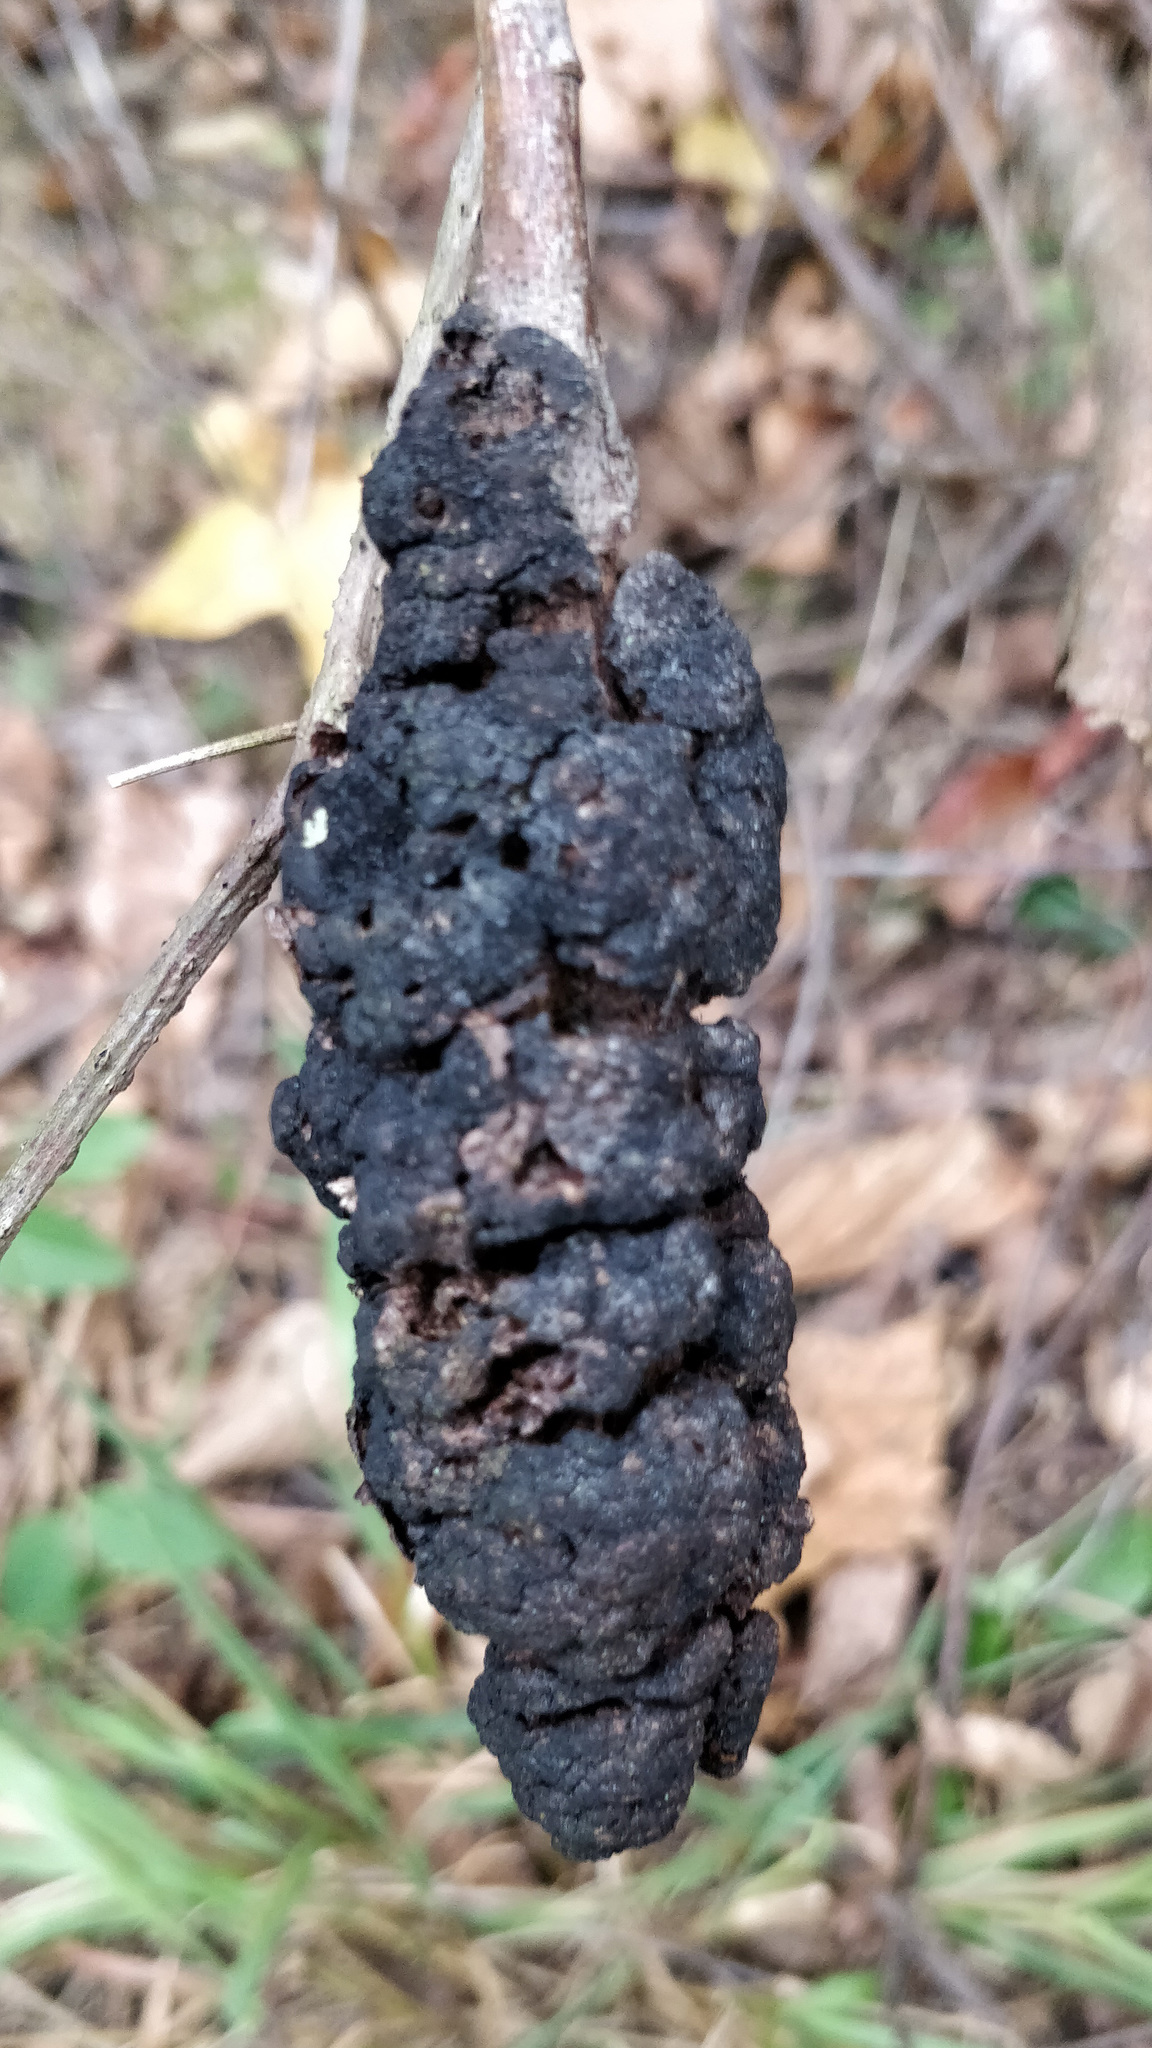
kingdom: Fungi
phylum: Ascomycota
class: Dothideomycetes
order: Venturiales
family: Venturiaceae
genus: Apiosporina
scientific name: Apiosporina morbosa
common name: Black knot
